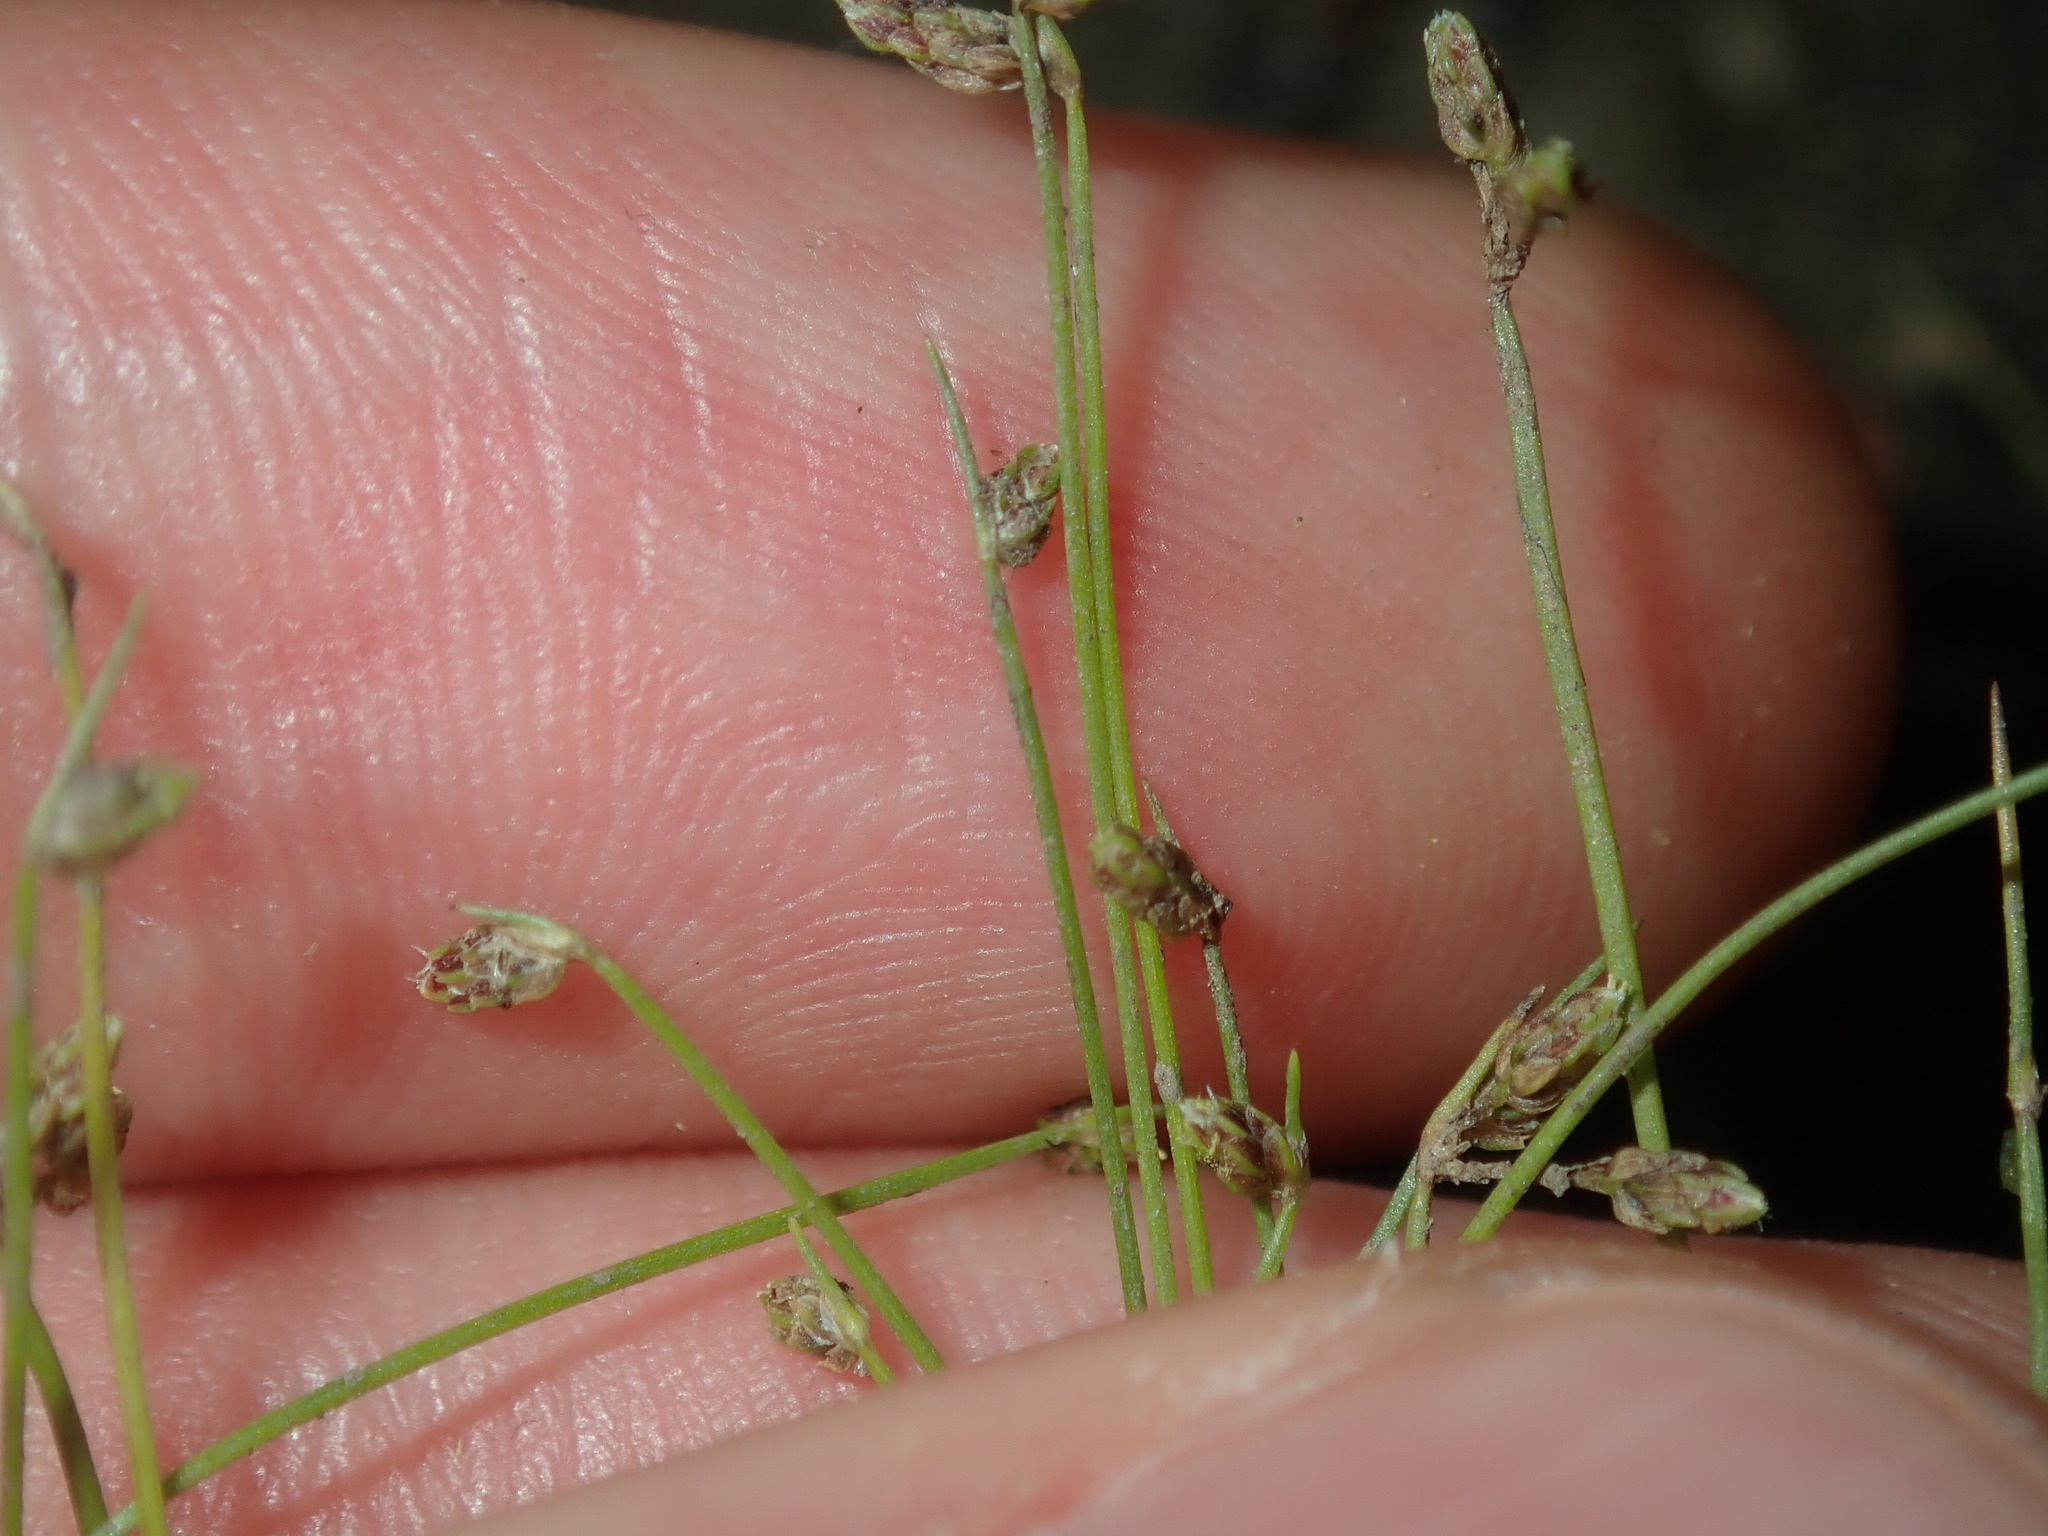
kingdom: Plantae
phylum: Tracheophyta
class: Liliopsida
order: Poales
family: Cyperaceae
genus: Isolepis
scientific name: Isolepis cernua
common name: Slender club-rush
